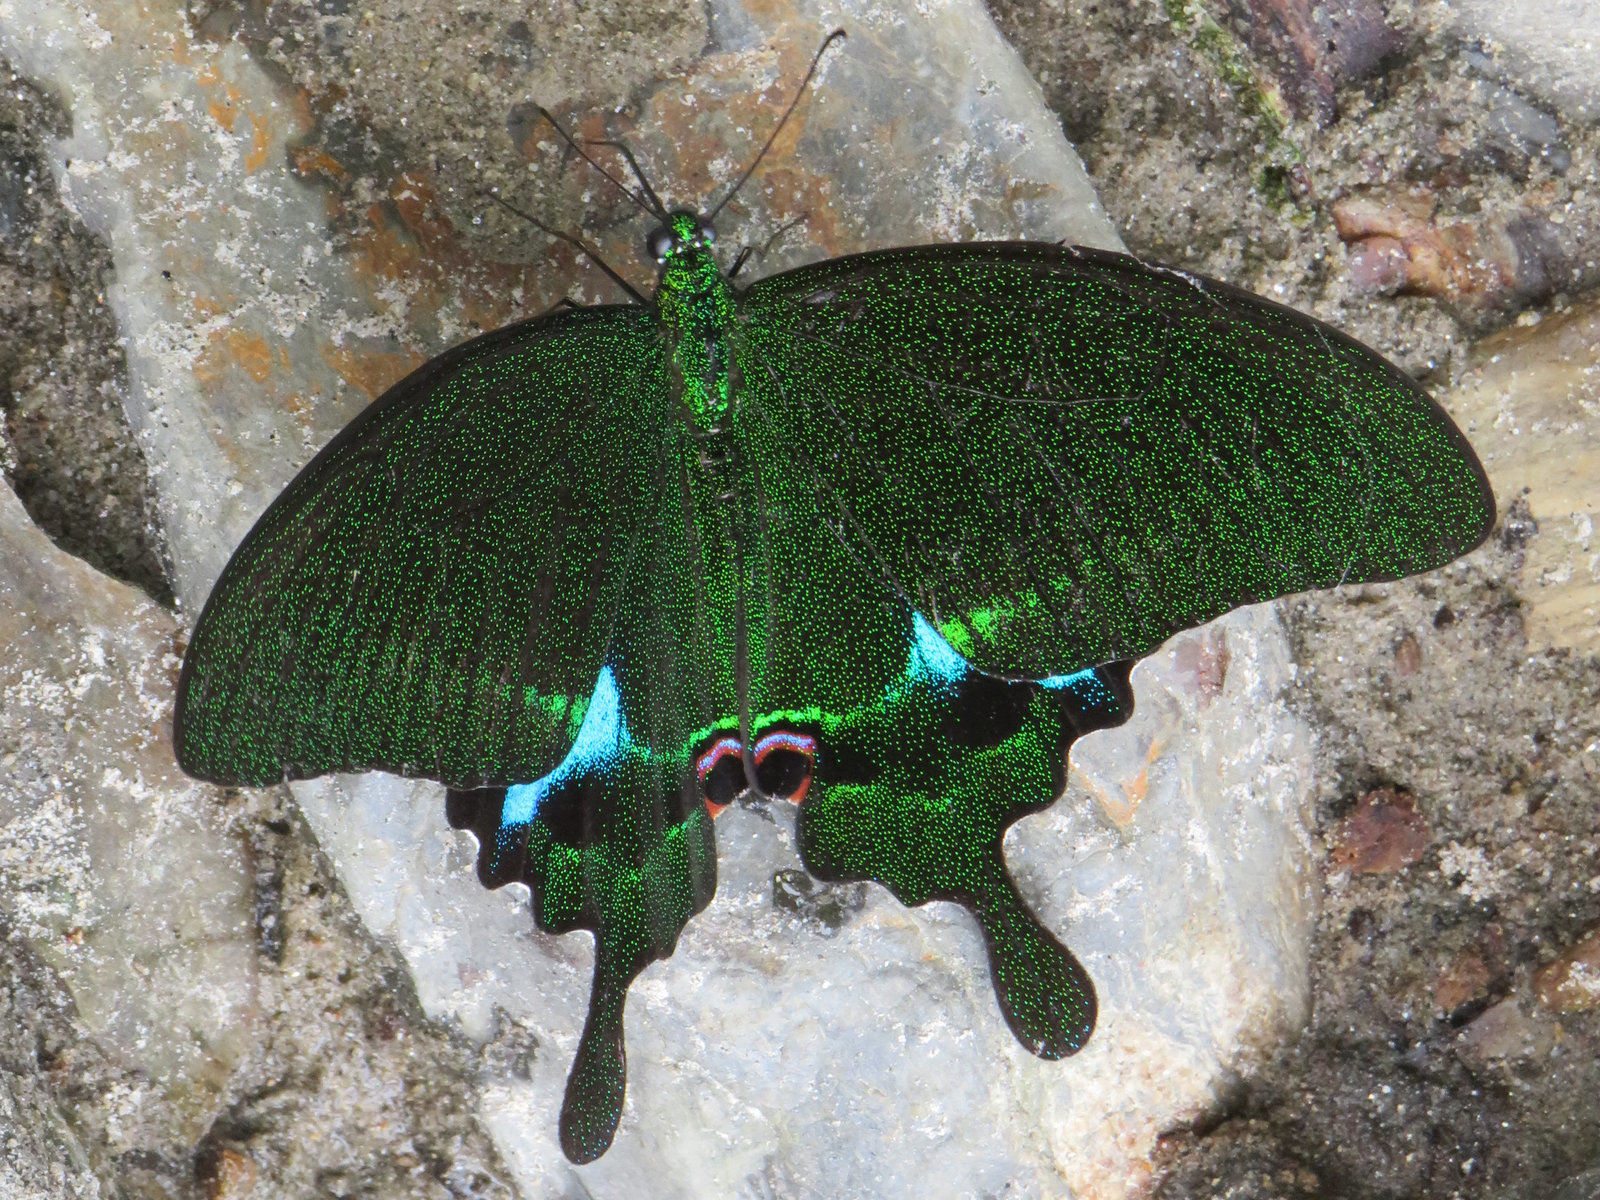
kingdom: Animalia
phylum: Arthropoda
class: Insecta
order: Lepidoptera
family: Papilionidae
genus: Papilio
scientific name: Papilio paris
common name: Paris peacock
